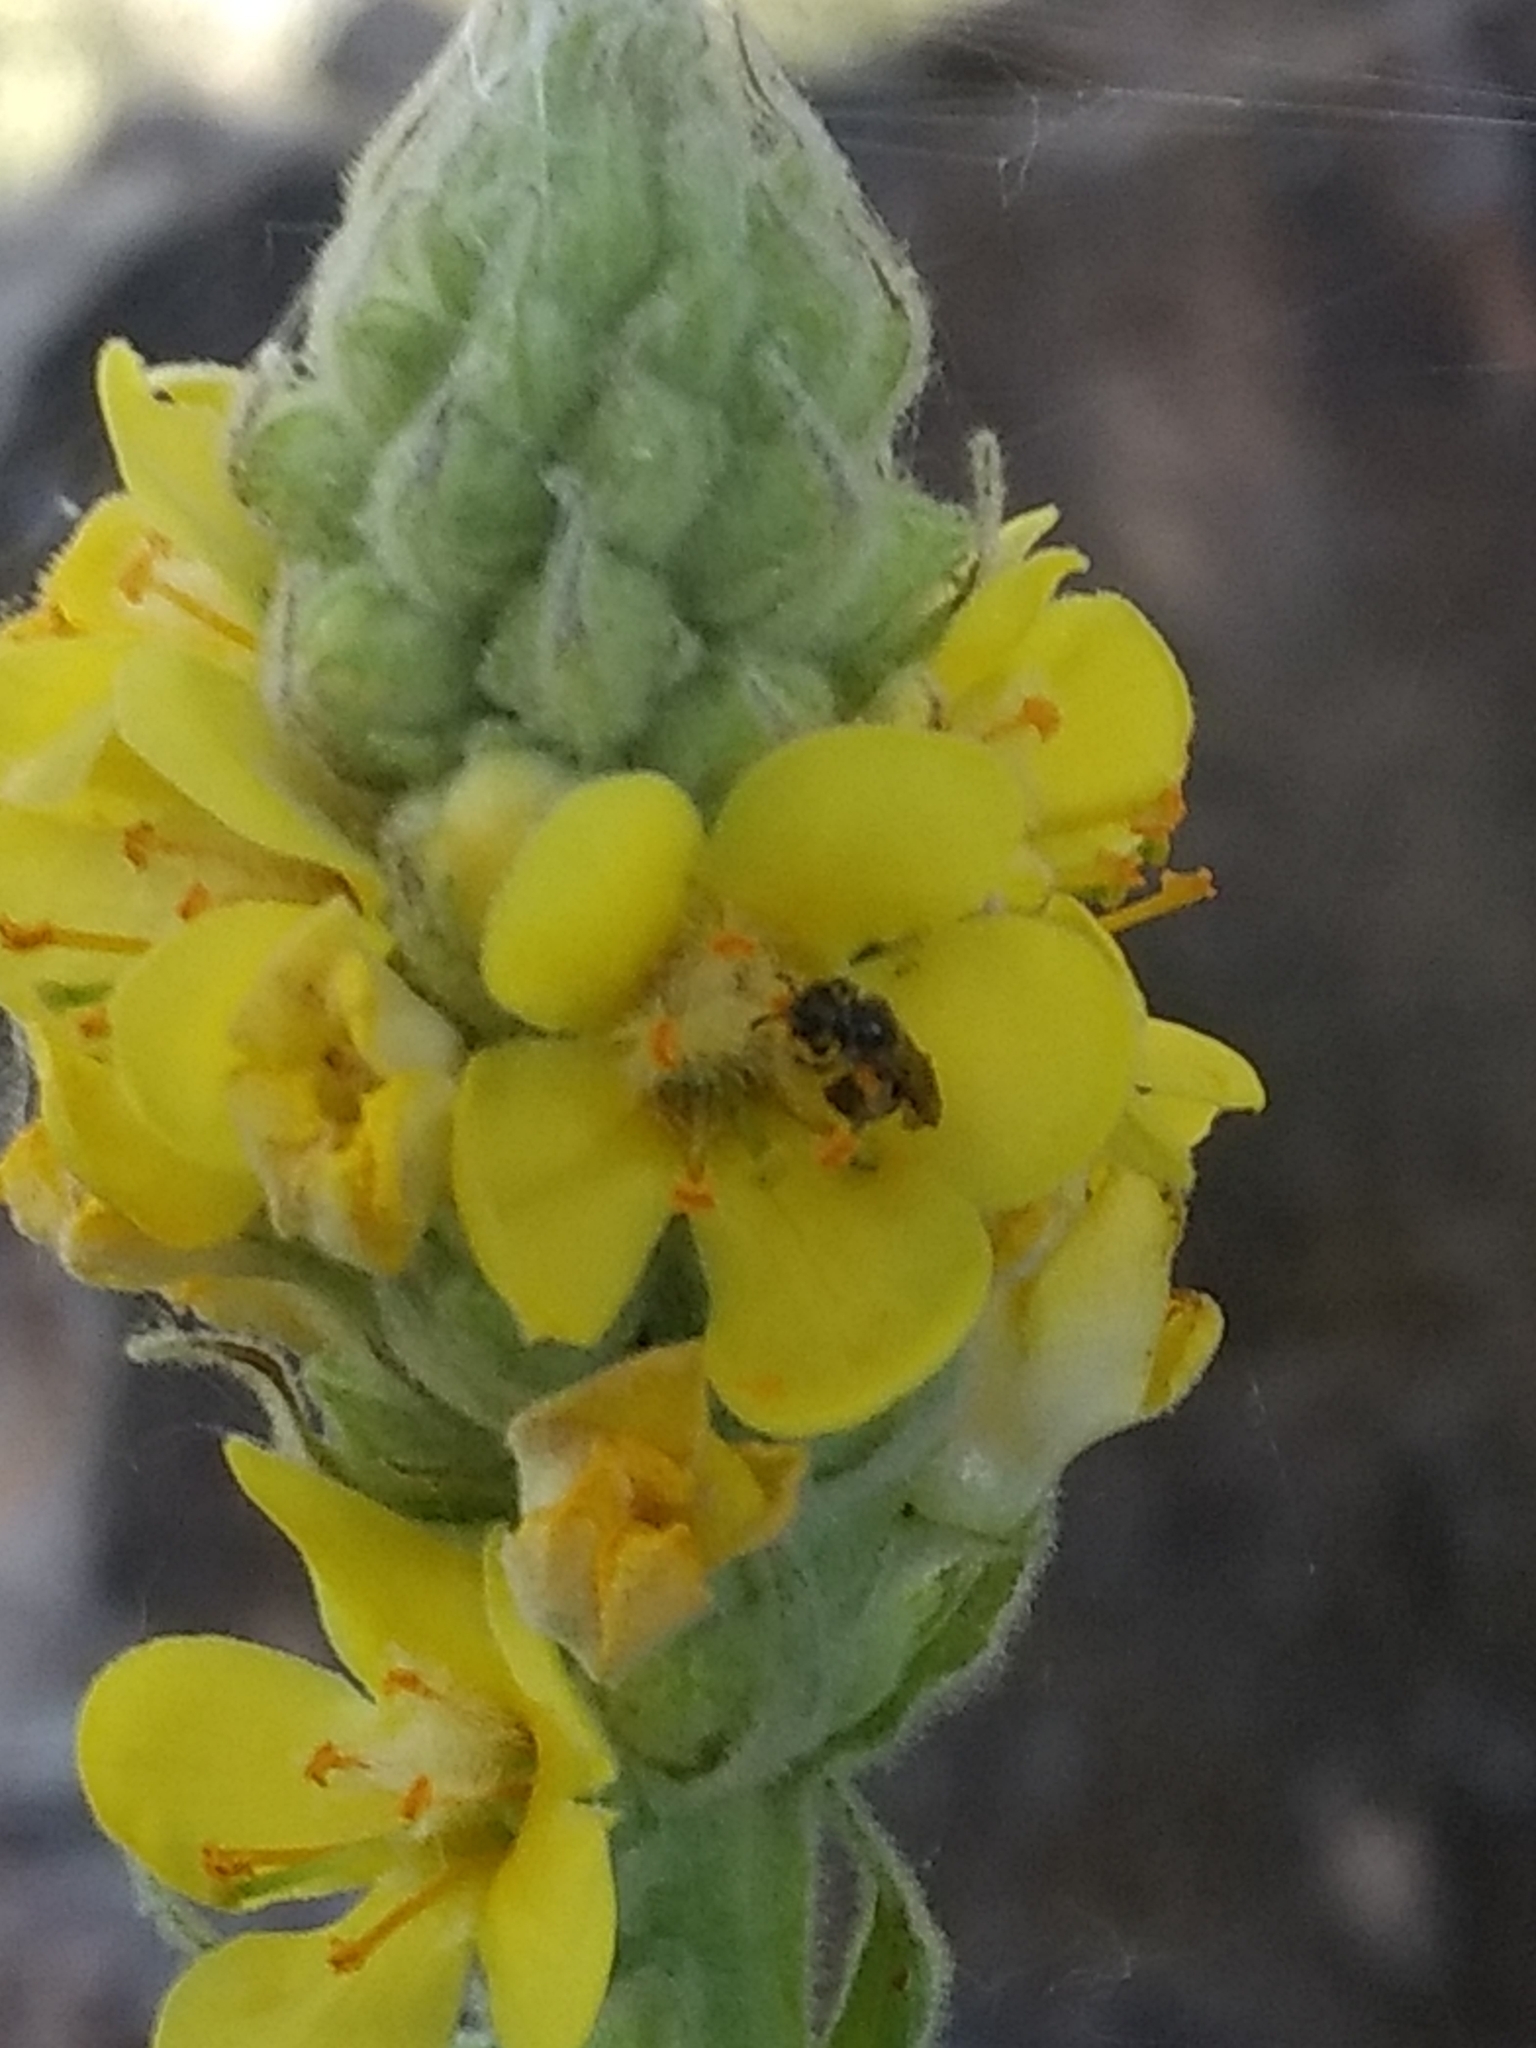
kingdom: Plantae
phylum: Tracheophyta
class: Magnoliopsida
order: Lamiales
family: Scrophulariaceae
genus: Verbascum
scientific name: Verbascum thapsus
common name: Common mullein
